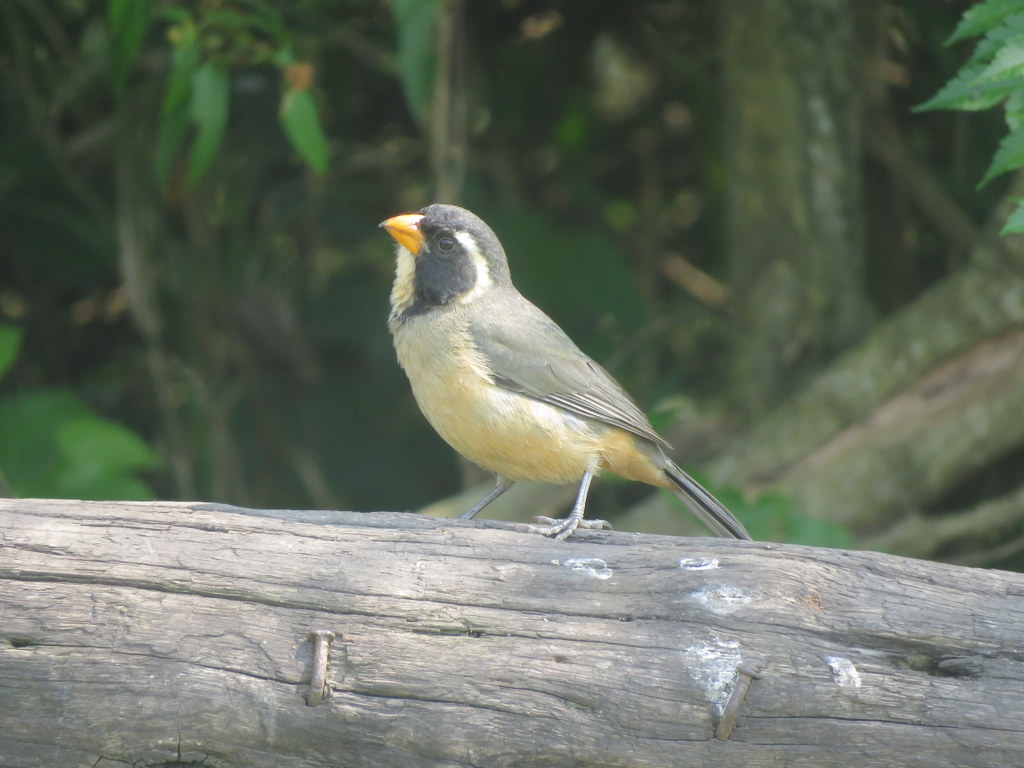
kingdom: Animalia
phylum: Chordata
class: Aves
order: Passeriformes
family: Thraupidae
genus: Saltator
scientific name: Saltator aurantiirostris
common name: Golden-billed saltator
